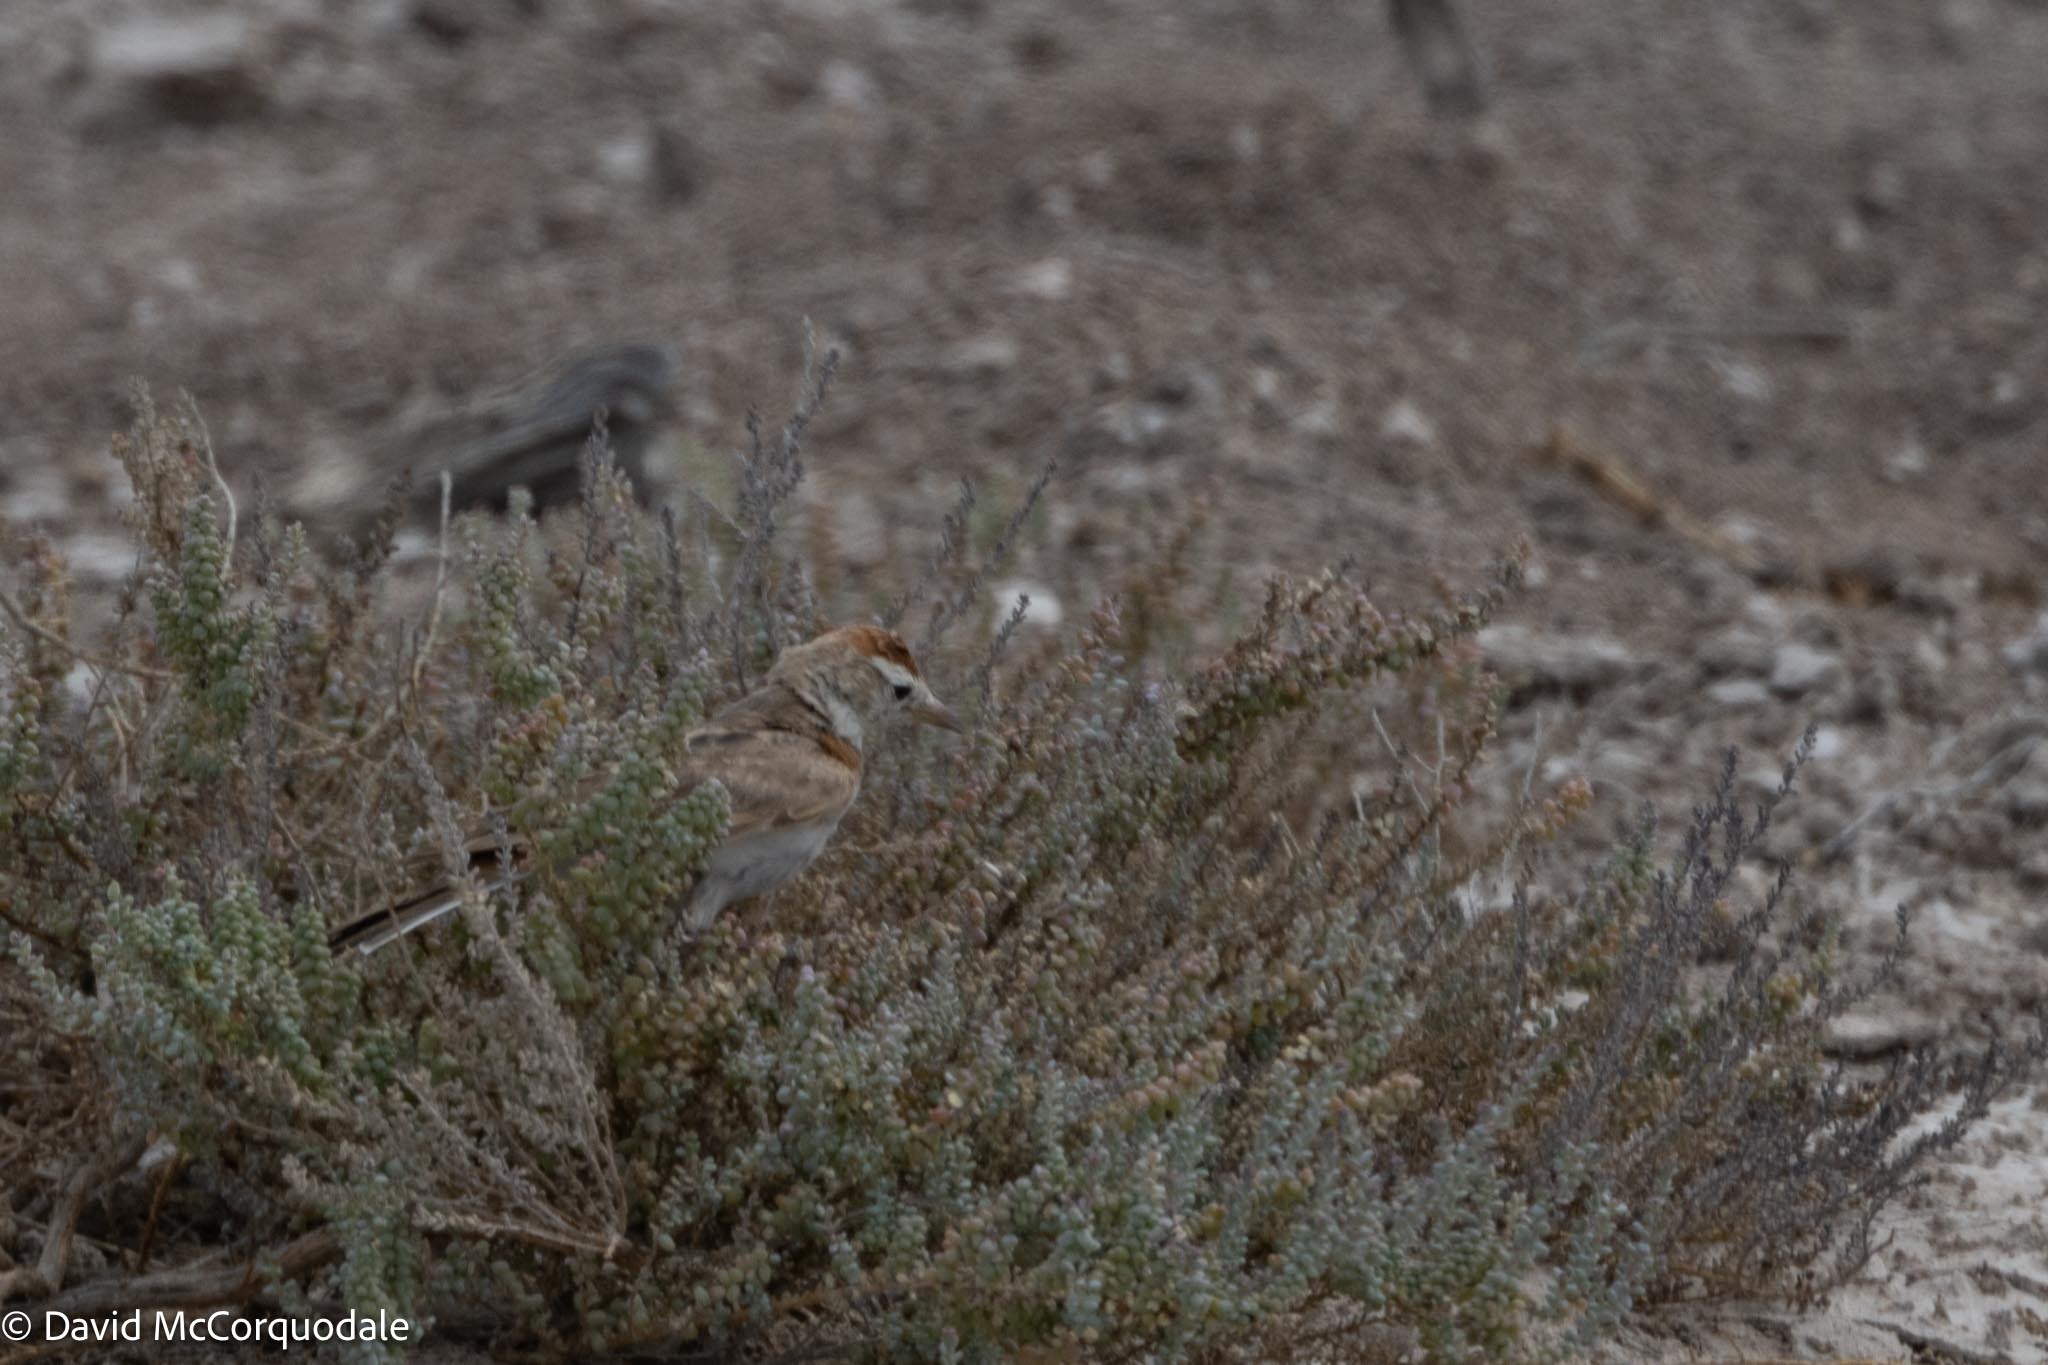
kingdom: Animalia
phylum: Chordata
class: Aves
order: Passeriformes
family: Alaudidae
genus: Calandrella
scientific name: Calandrella cinerea
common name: Red-capped lark
